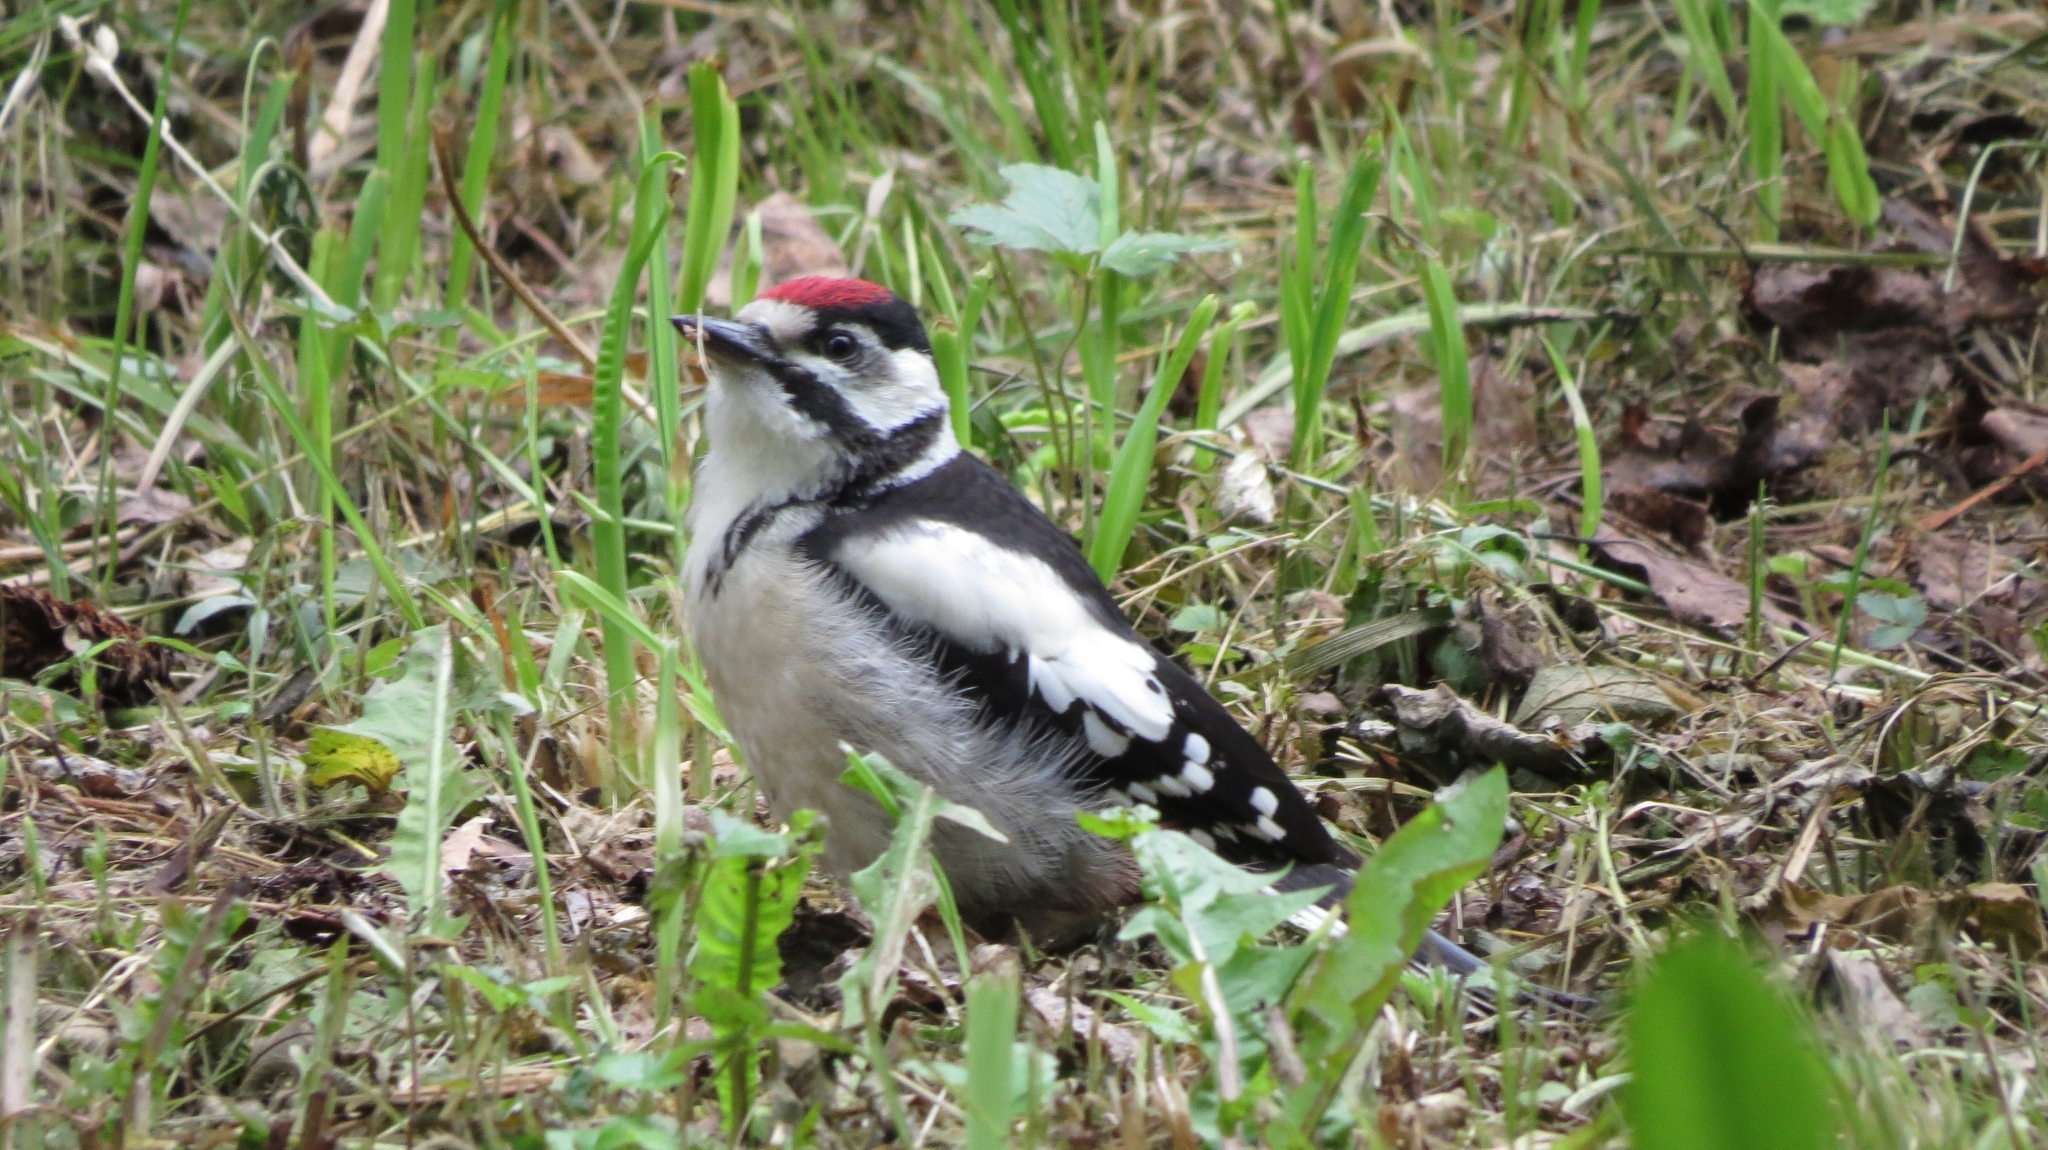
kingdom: Animalia
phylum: Chordata
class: Aves
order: Piciformes
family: Picidae
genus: Dendrocopos
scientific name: Dendrocopos major
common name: Great spotted woodpecker
